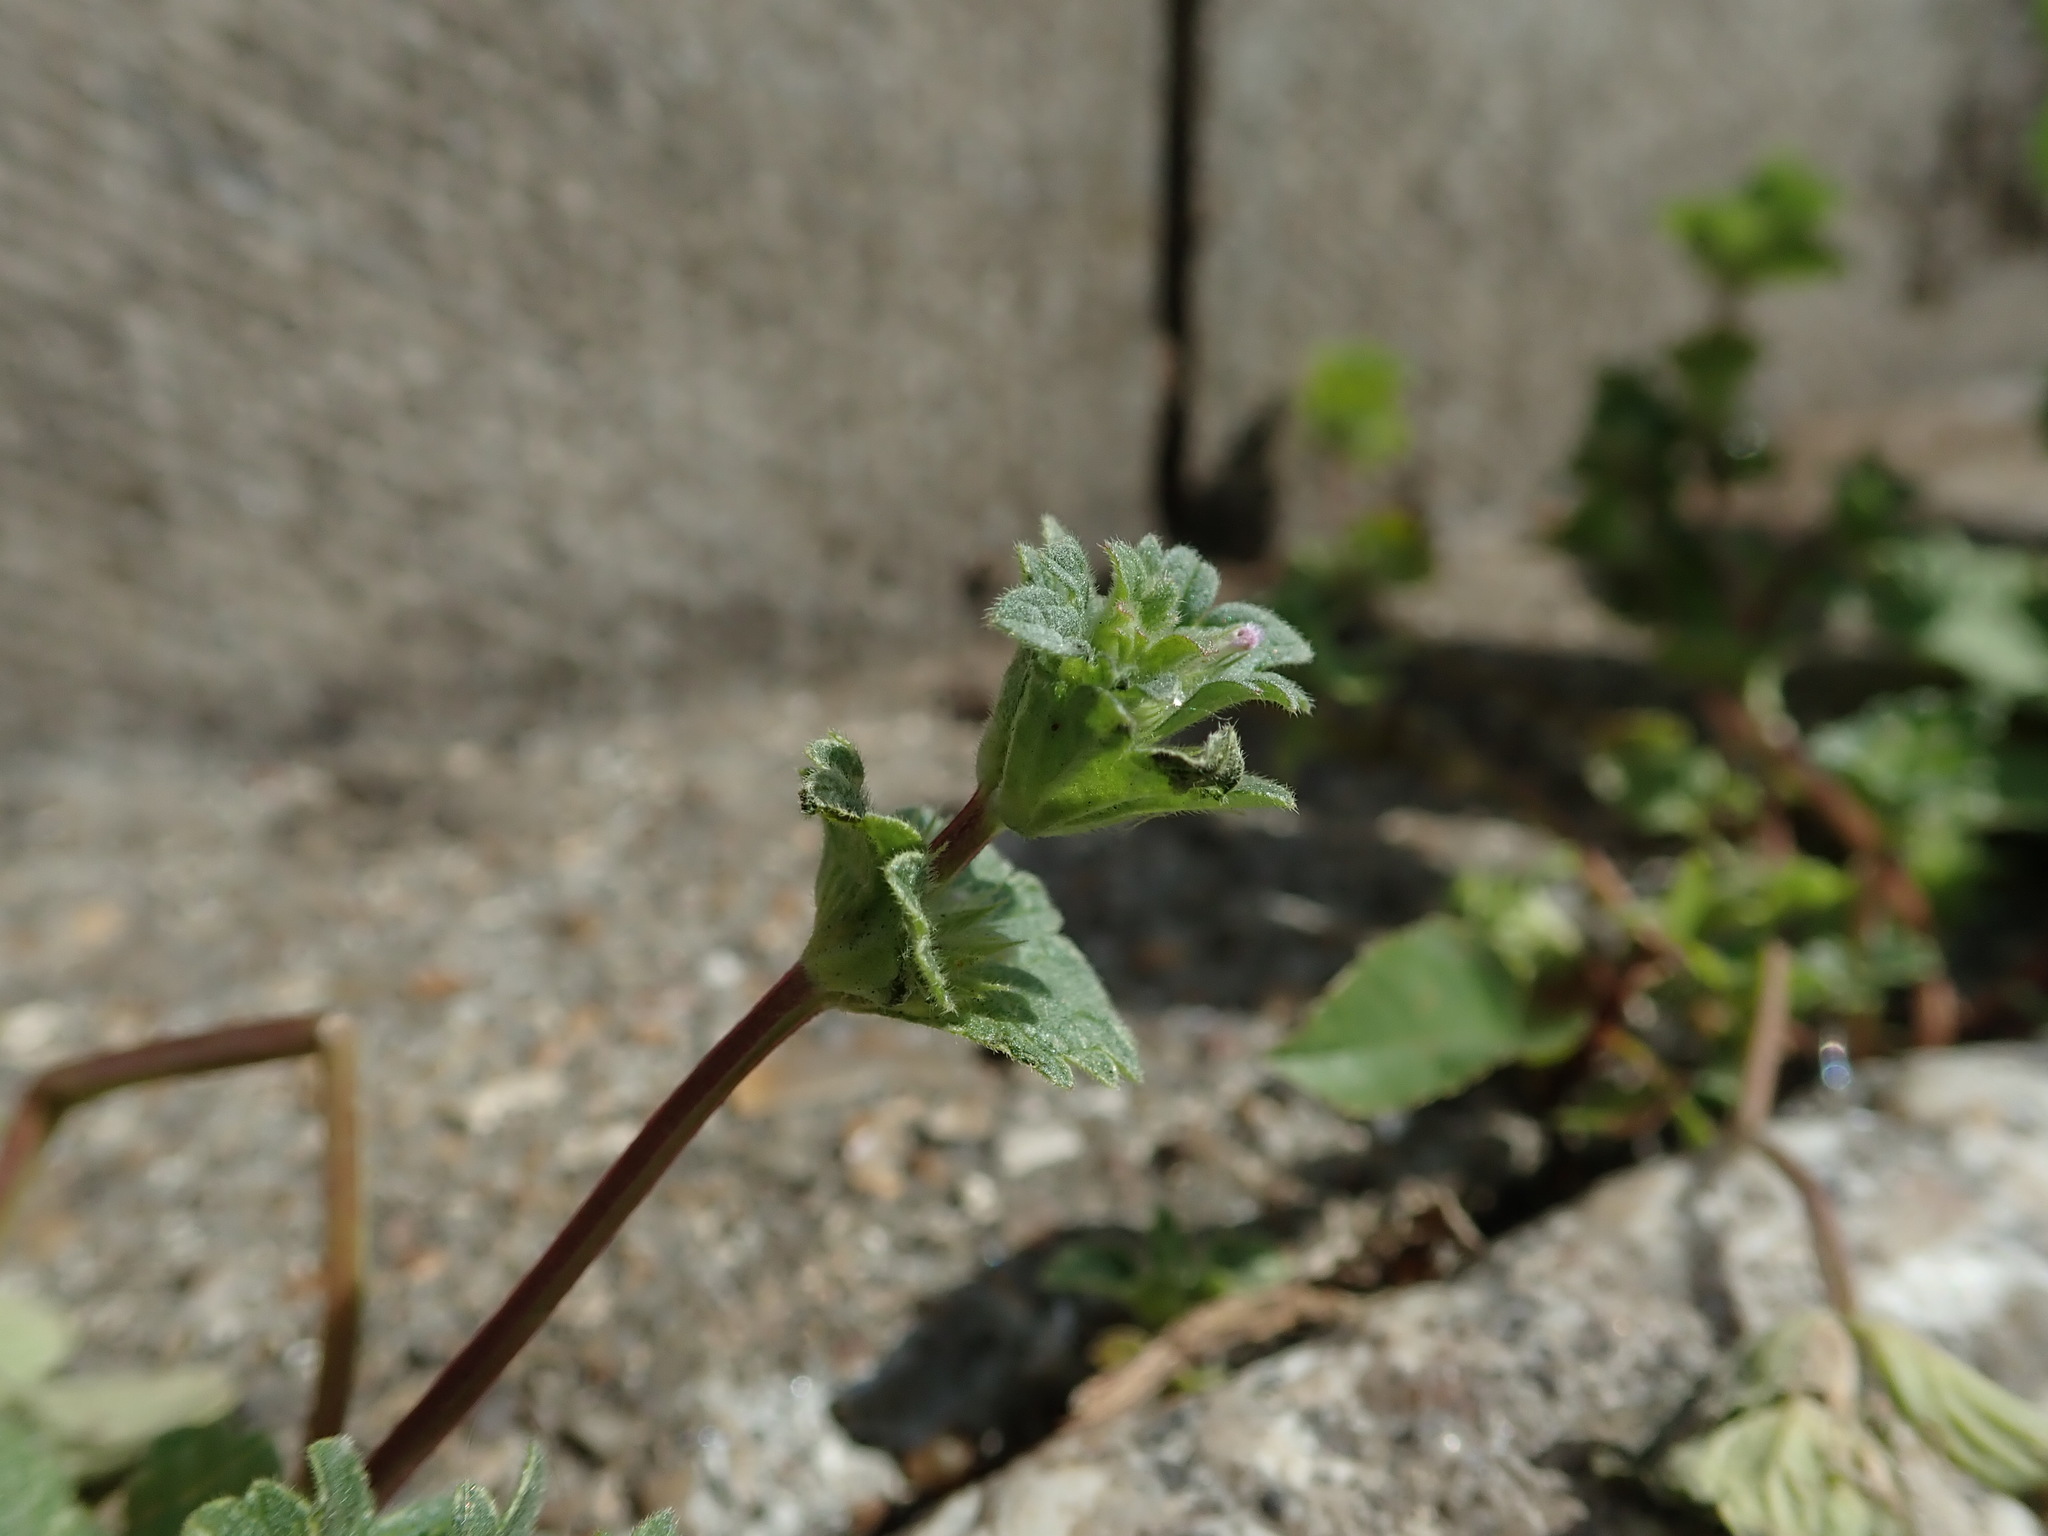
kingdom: Plantae
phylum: Tracheophyta
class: Magnoliopsida
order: Lamiales
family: Lamiaceae
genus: Lamium
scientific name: Lamium amplexicaule
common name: Henbit dead-nettle
